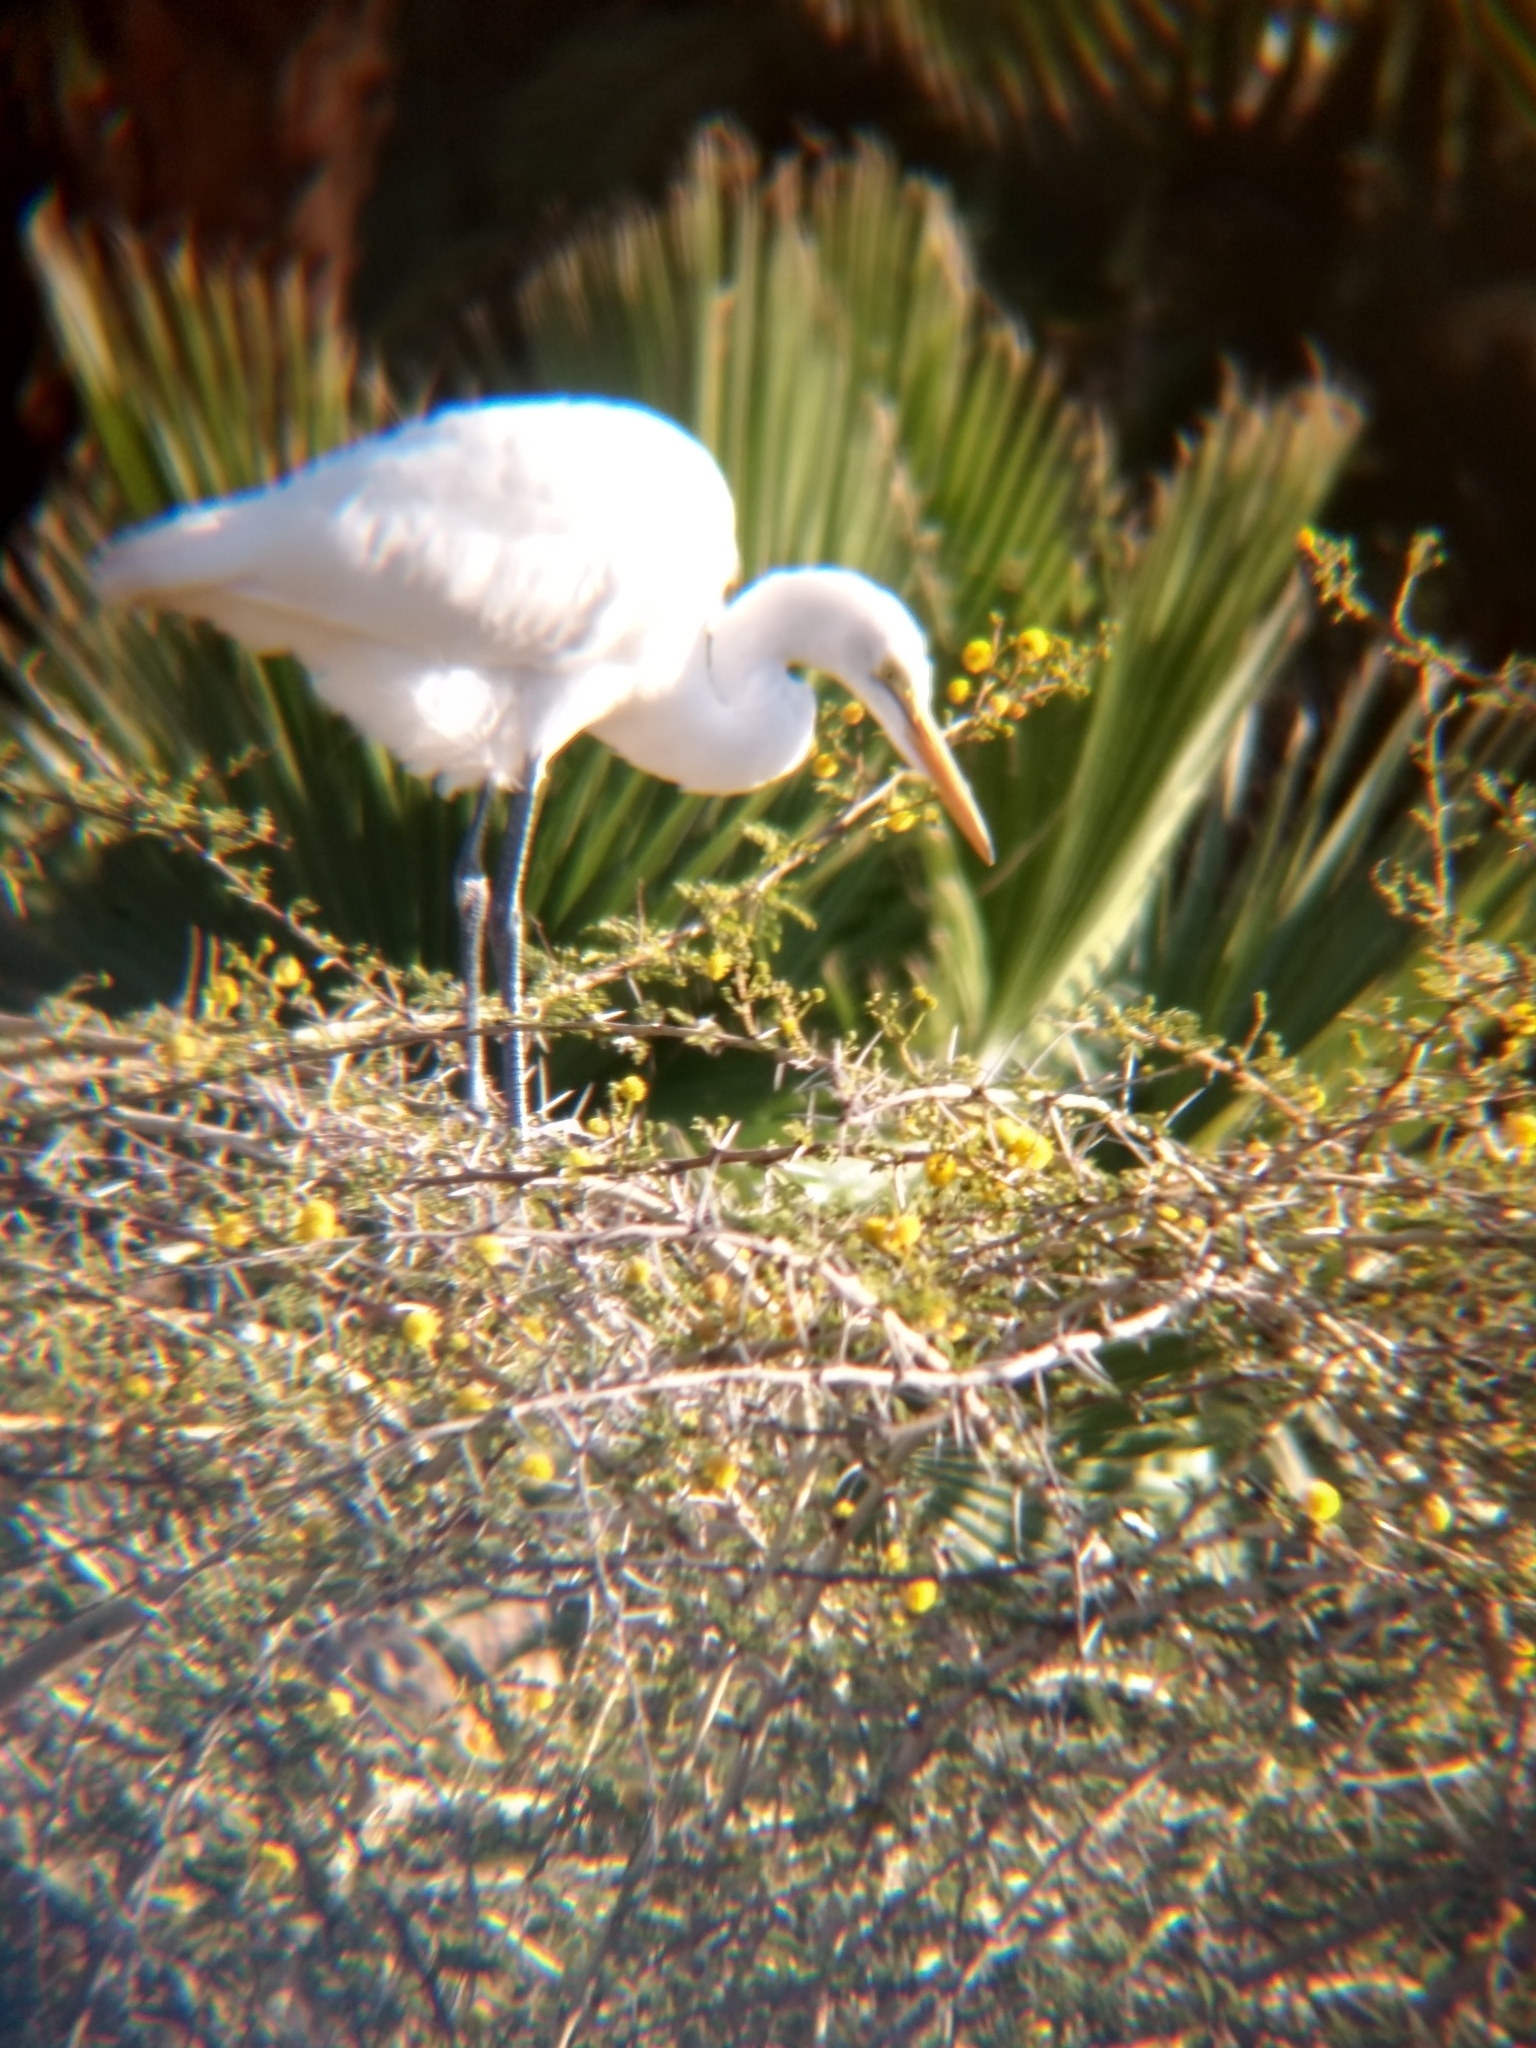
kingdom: Animalia
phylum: Chordata
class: Aves
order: Pelecaniformes
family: Ardeidae
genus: Ardea
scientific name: Ardea alba
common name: Great egret
